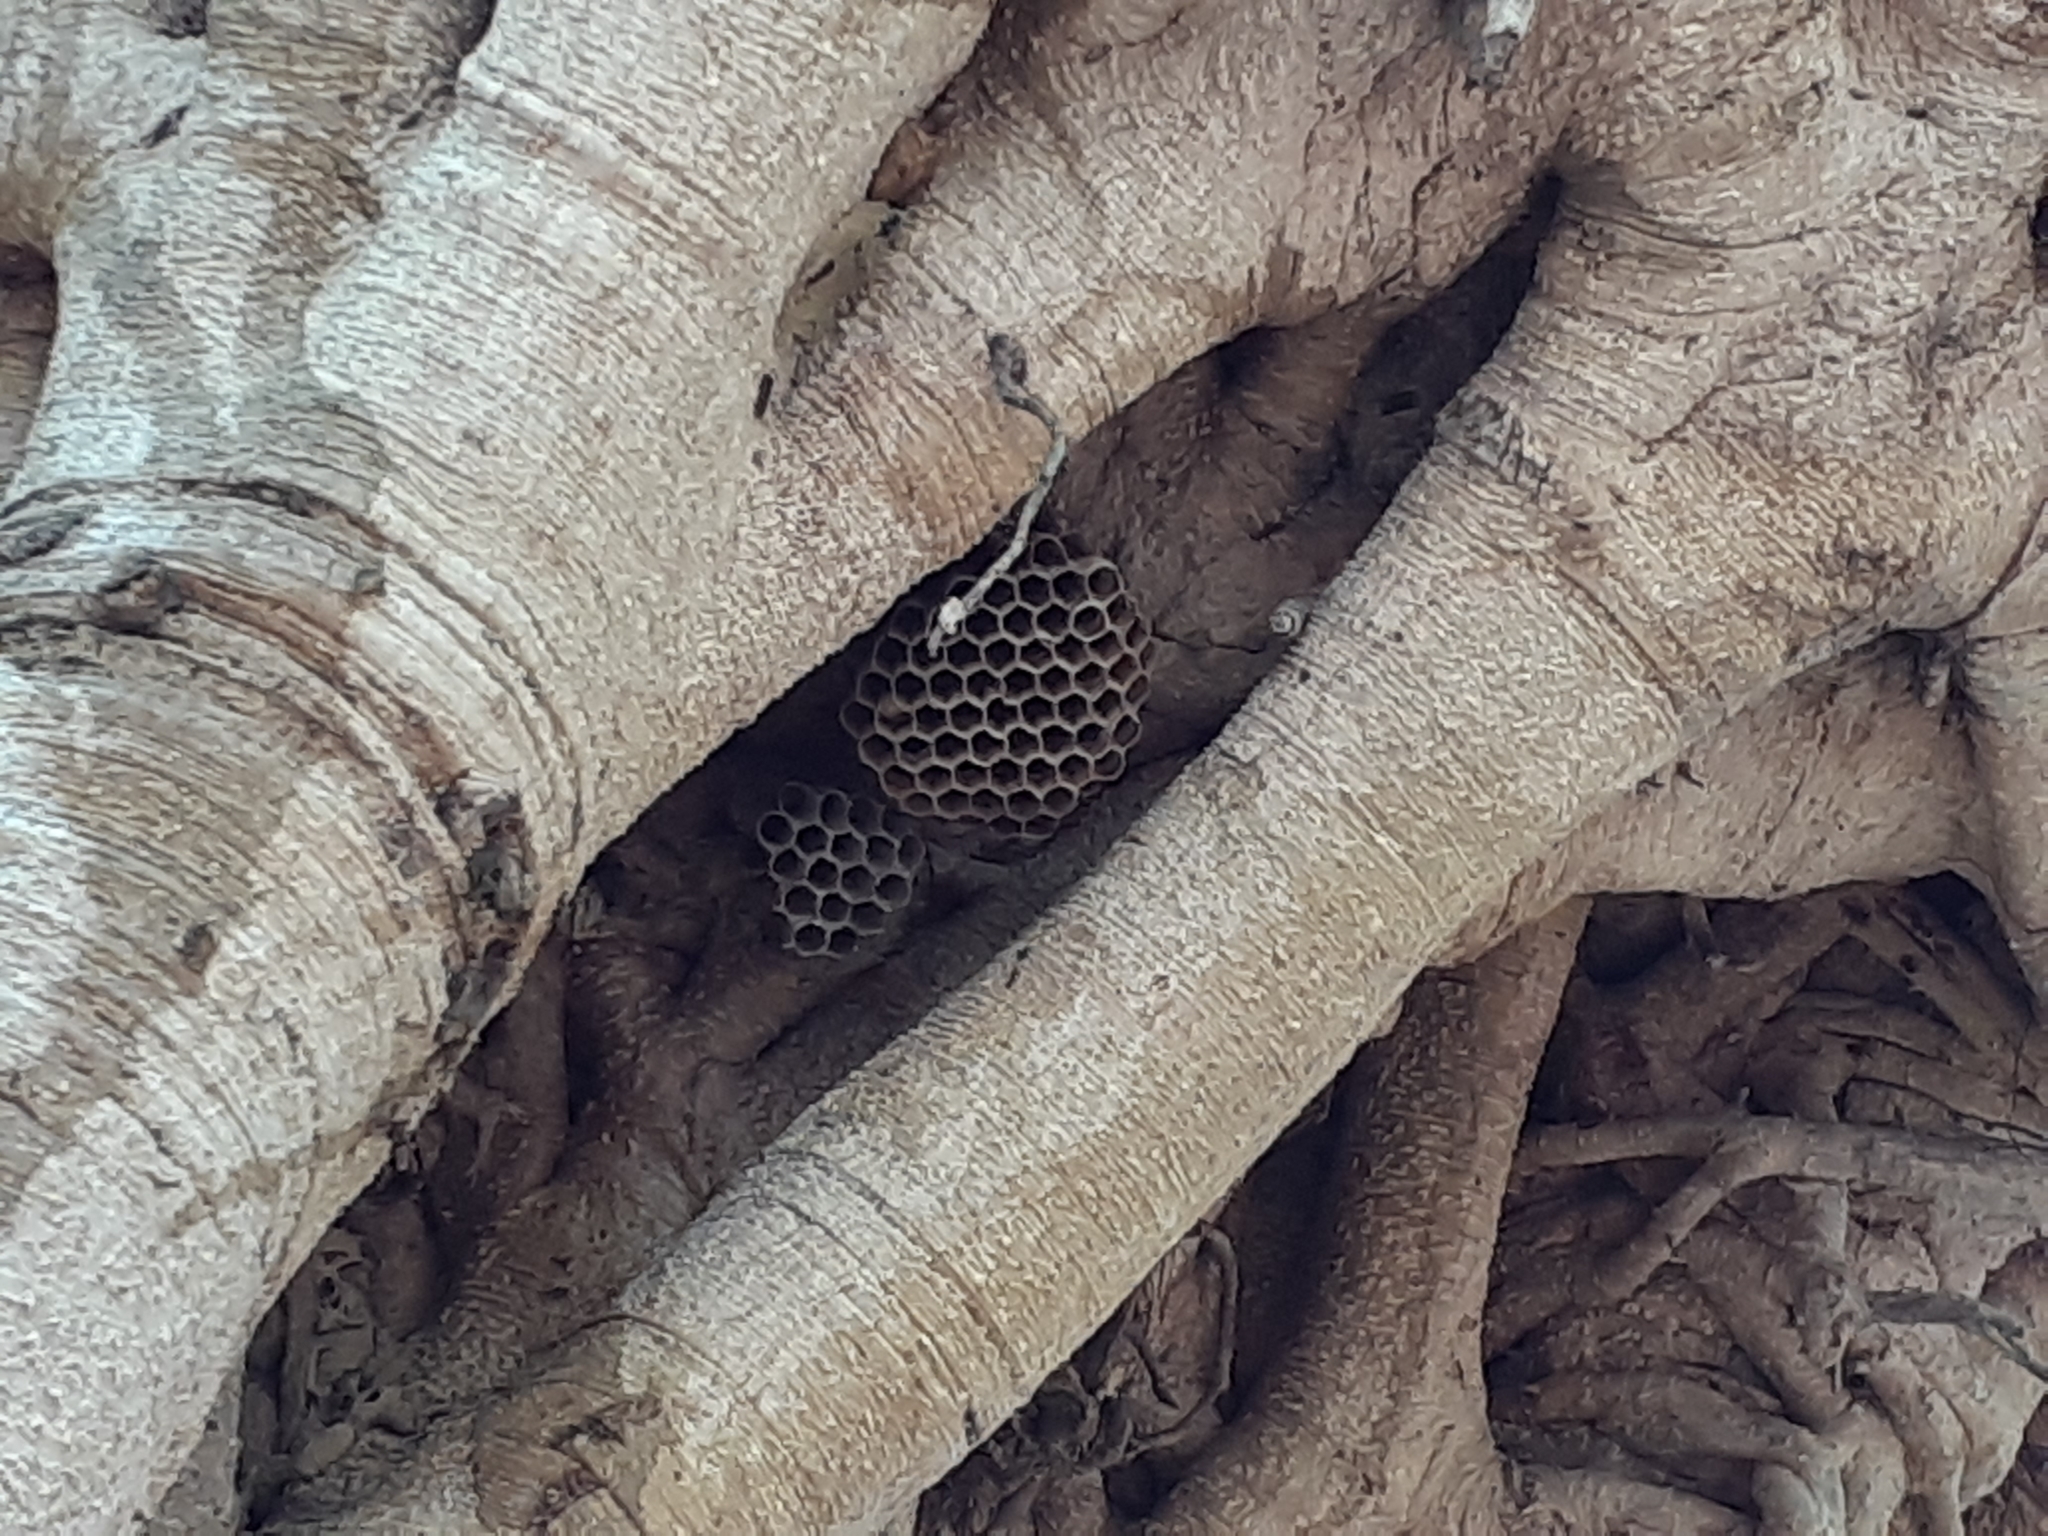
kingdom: Animalia
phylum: Arthropoda
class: Insecta
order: Hymenoptera
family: Vespidae
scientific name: Vespidae
